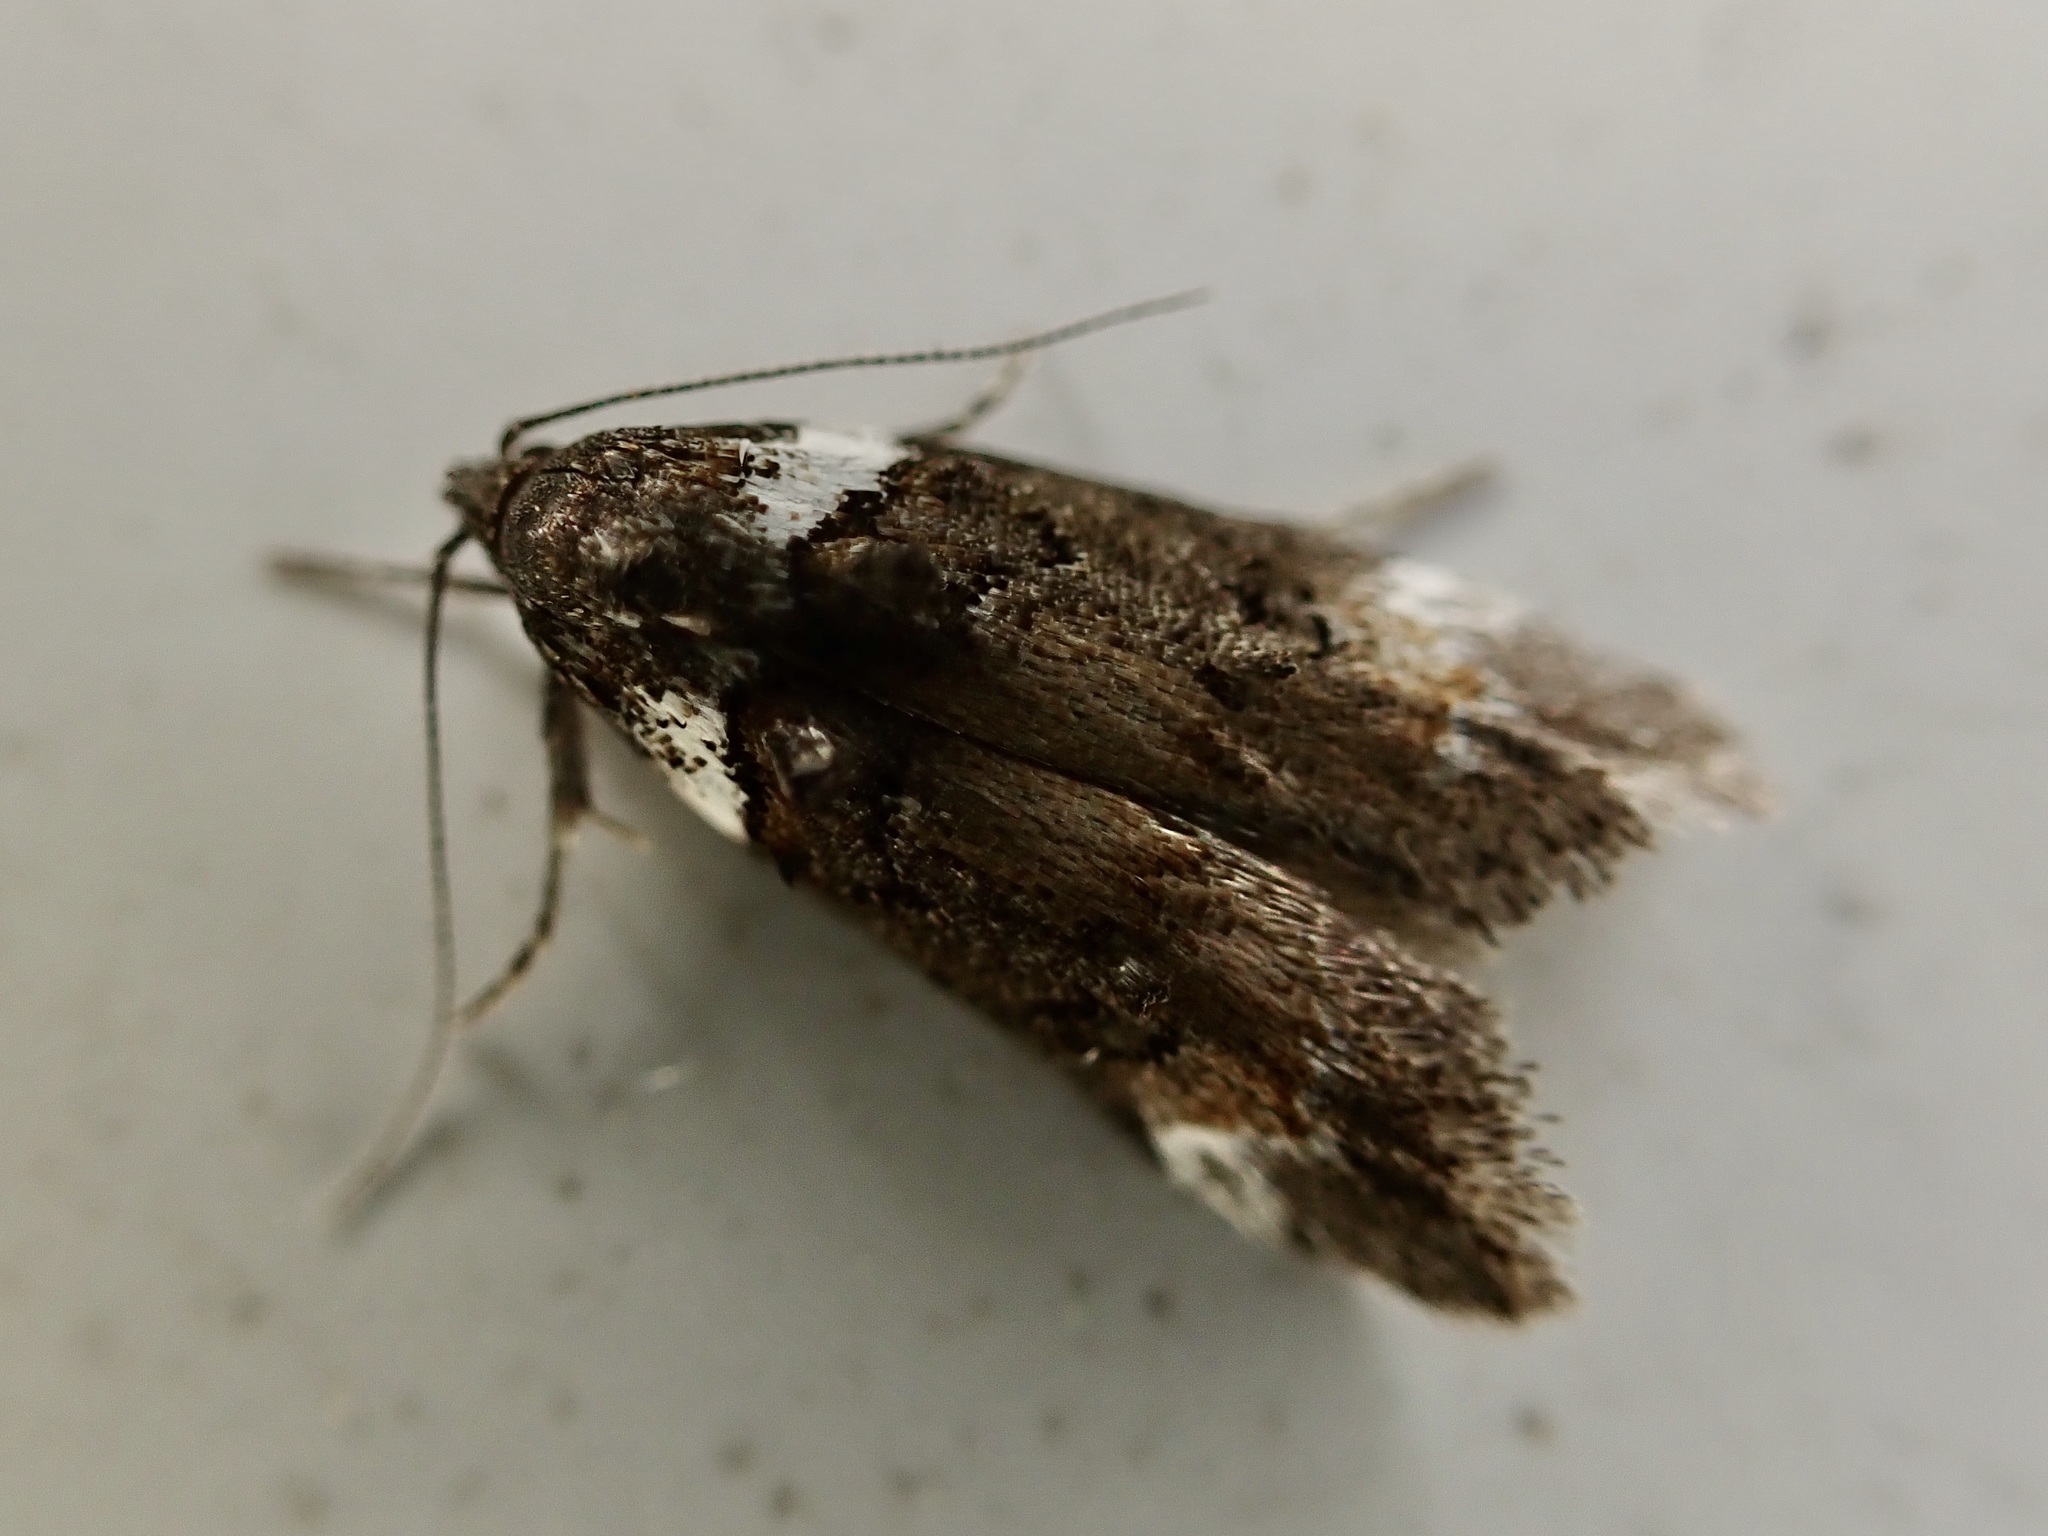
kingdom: Animalia
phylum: Arthropoda
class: Insecta
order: Lepidoptera
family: Oecophoridae
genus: Trachypepla
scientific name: Trachypepla conspicuella
